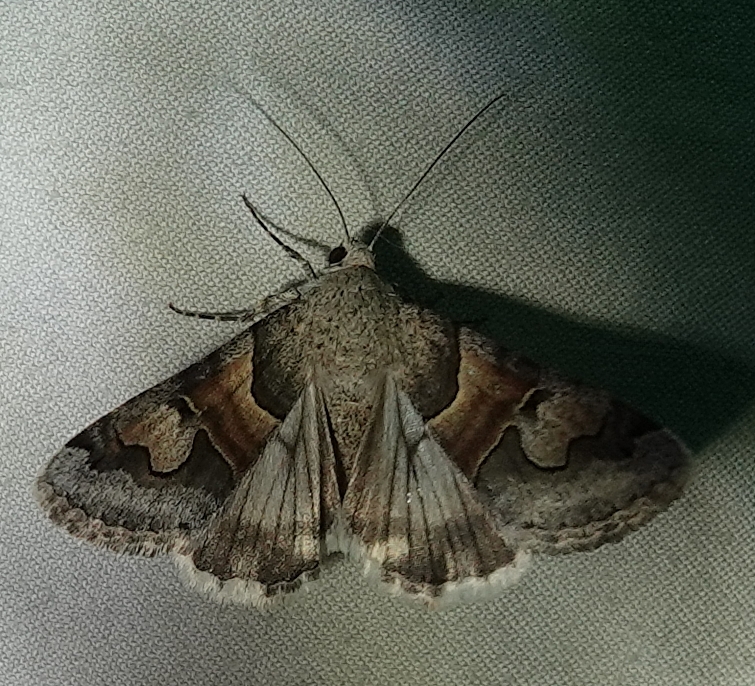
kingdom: Animalia
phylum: Arthropoda
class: Insecta
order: Lepidoptera
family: Erebidae
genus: Drasteria
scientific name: Drasteria pallescens
